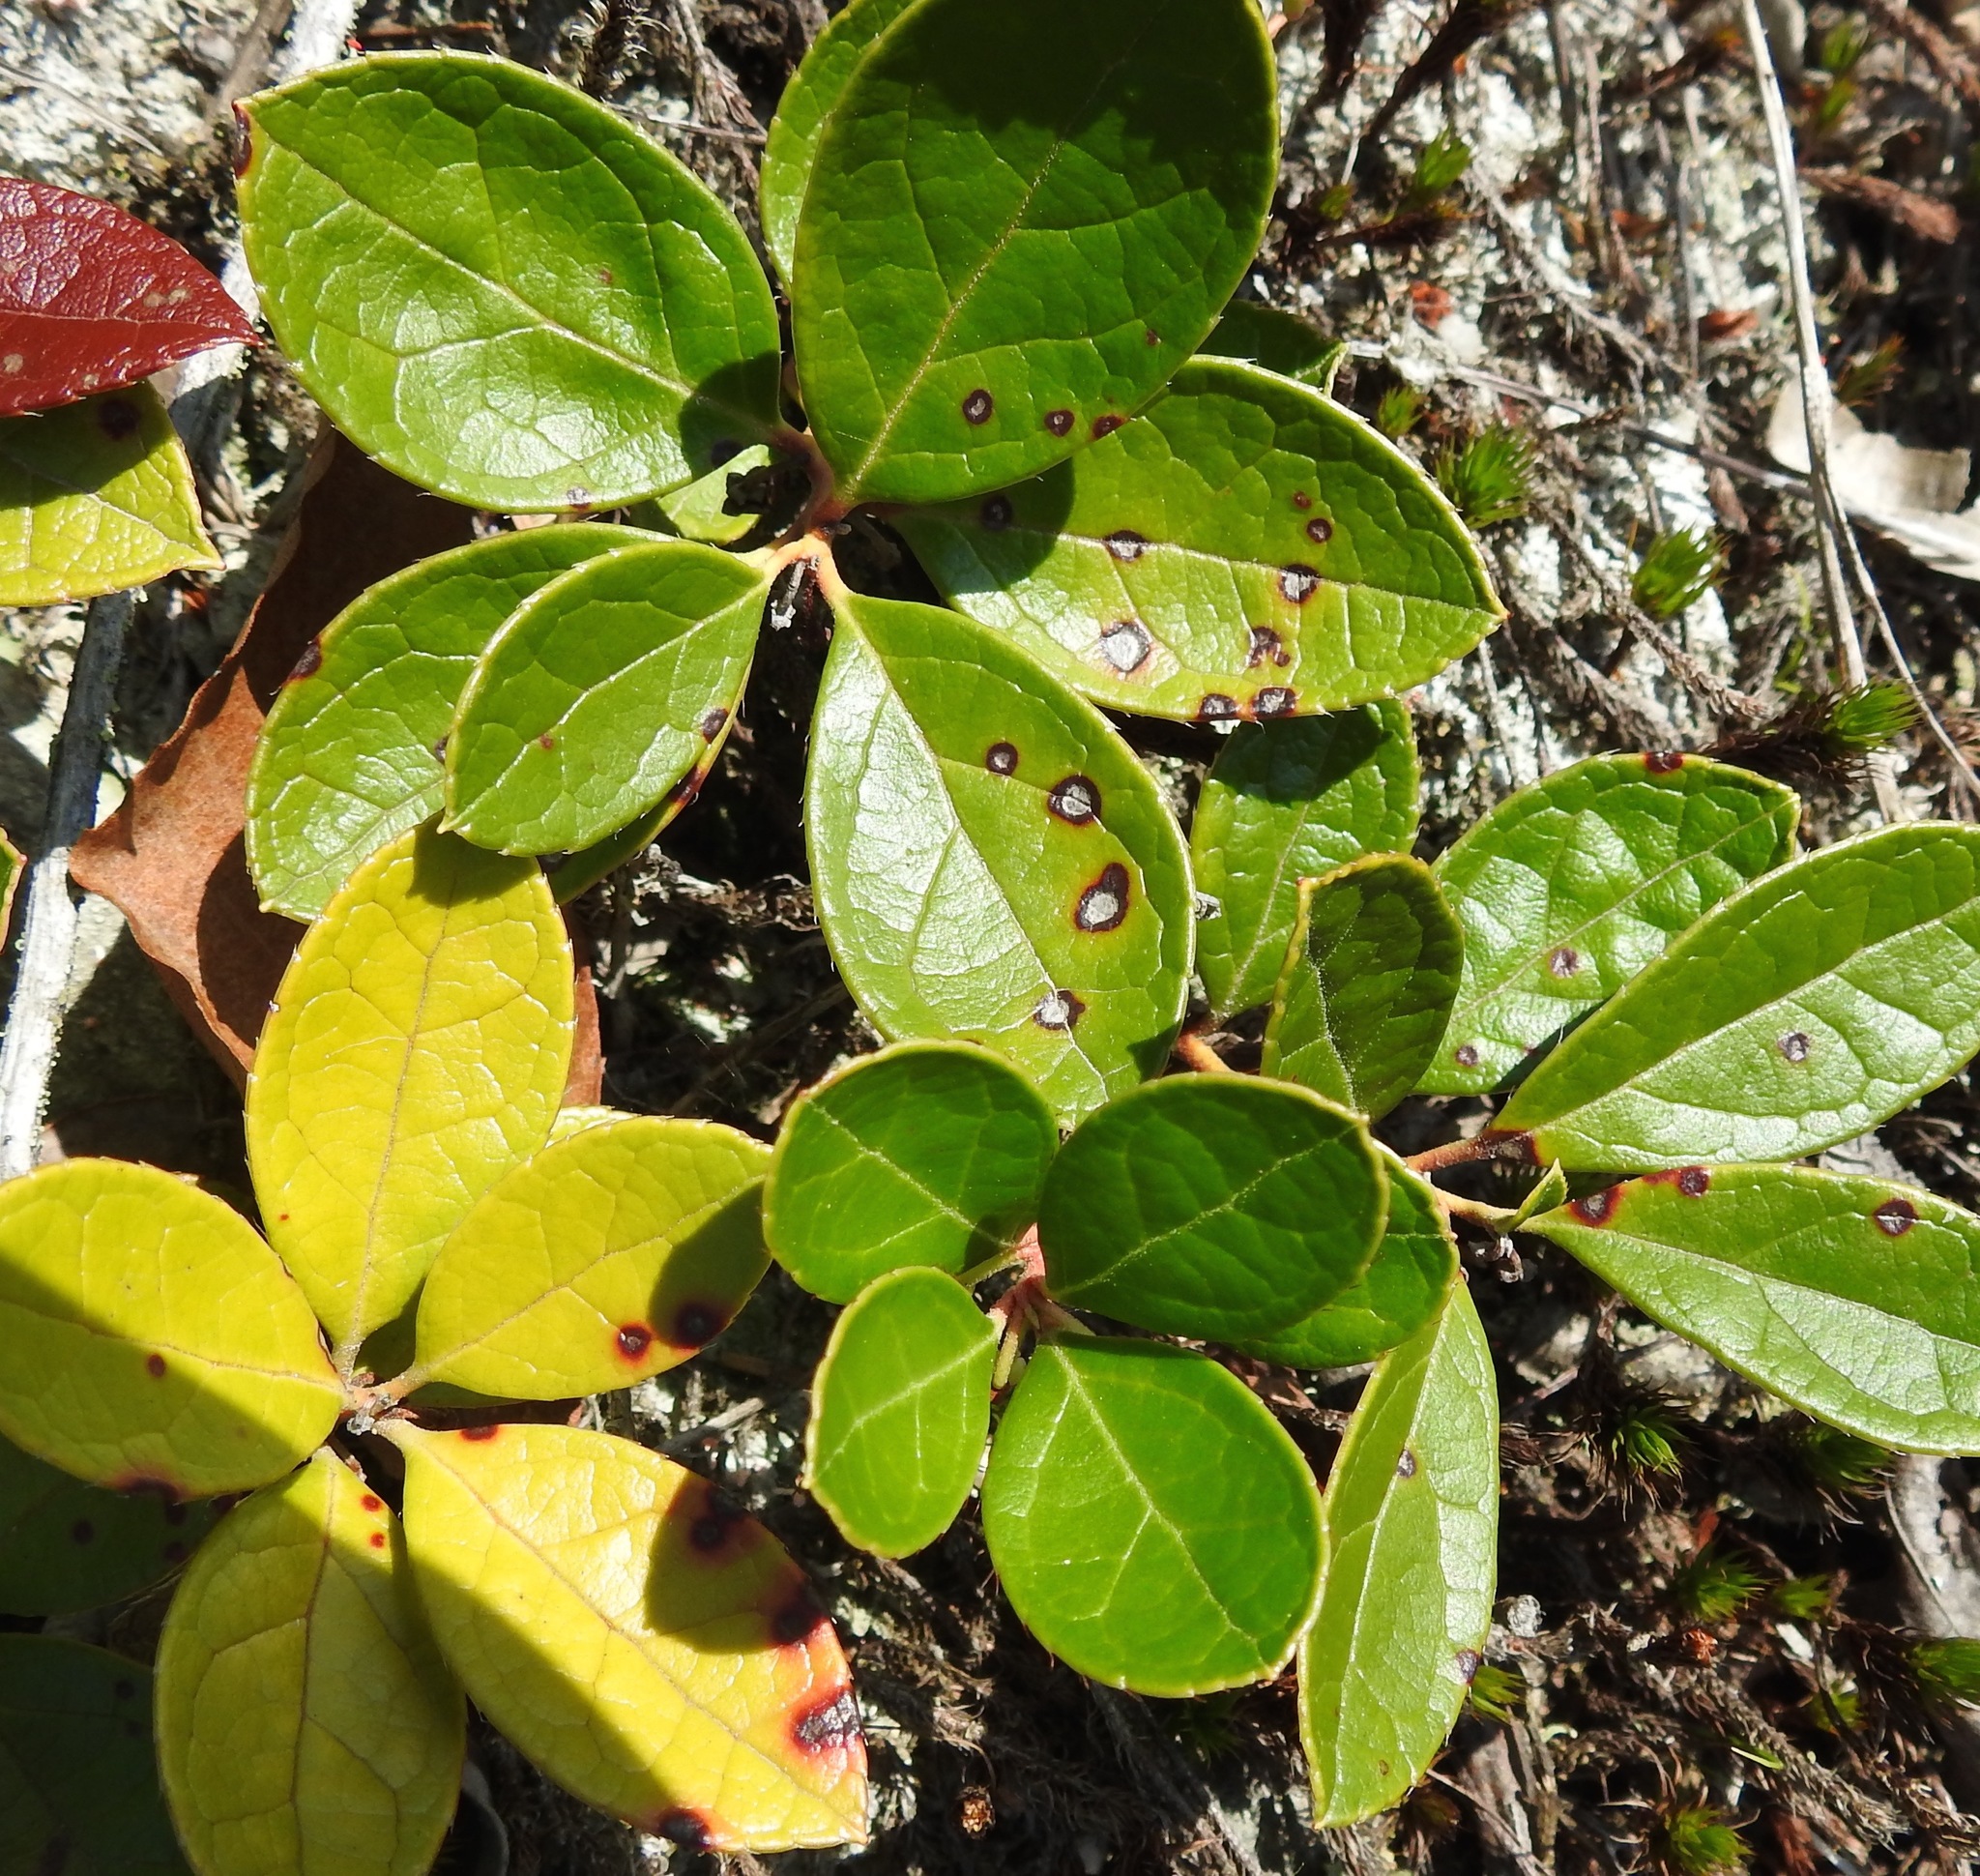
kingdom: Plantae
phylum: Tracheophyta
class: Magnoliopsida
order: Ericales
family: Ericaceae
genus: Gaultheria
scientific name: Gaultheria procumbens
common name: Checkerberry
